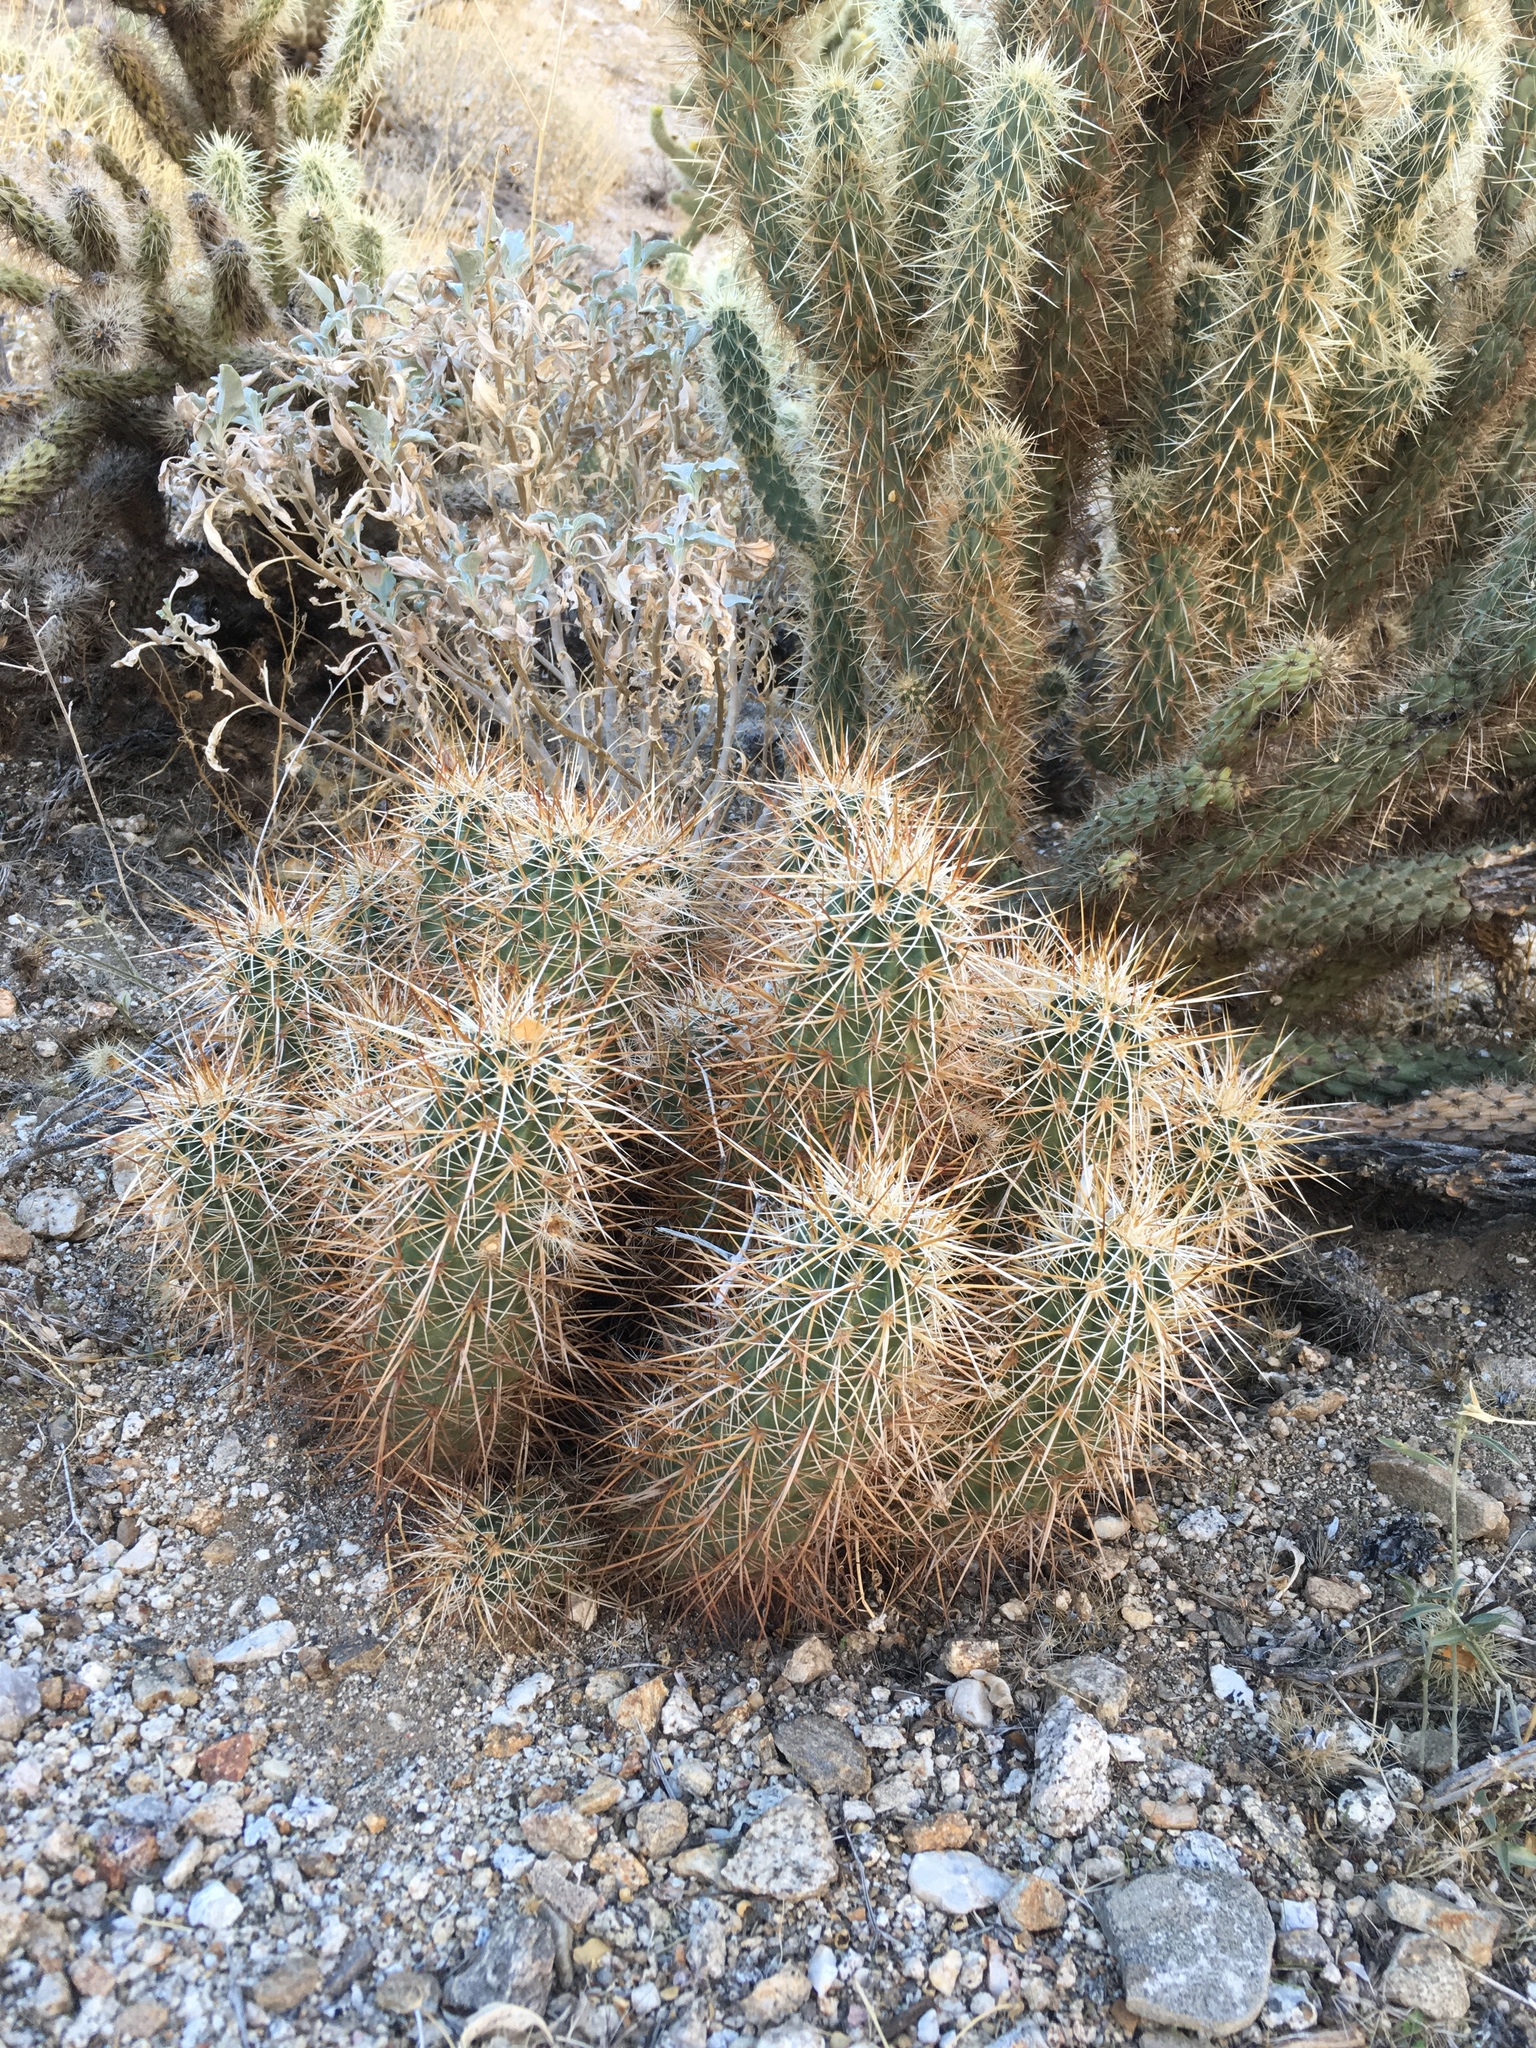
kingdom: Plantae
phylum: Tracheophyta
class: Magnoliopsida
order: Caryophyllales
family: Cactaceae
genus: Echinocereus
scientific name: Echinocereus engelmannii
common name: Engelmann's hedgehog cactus
